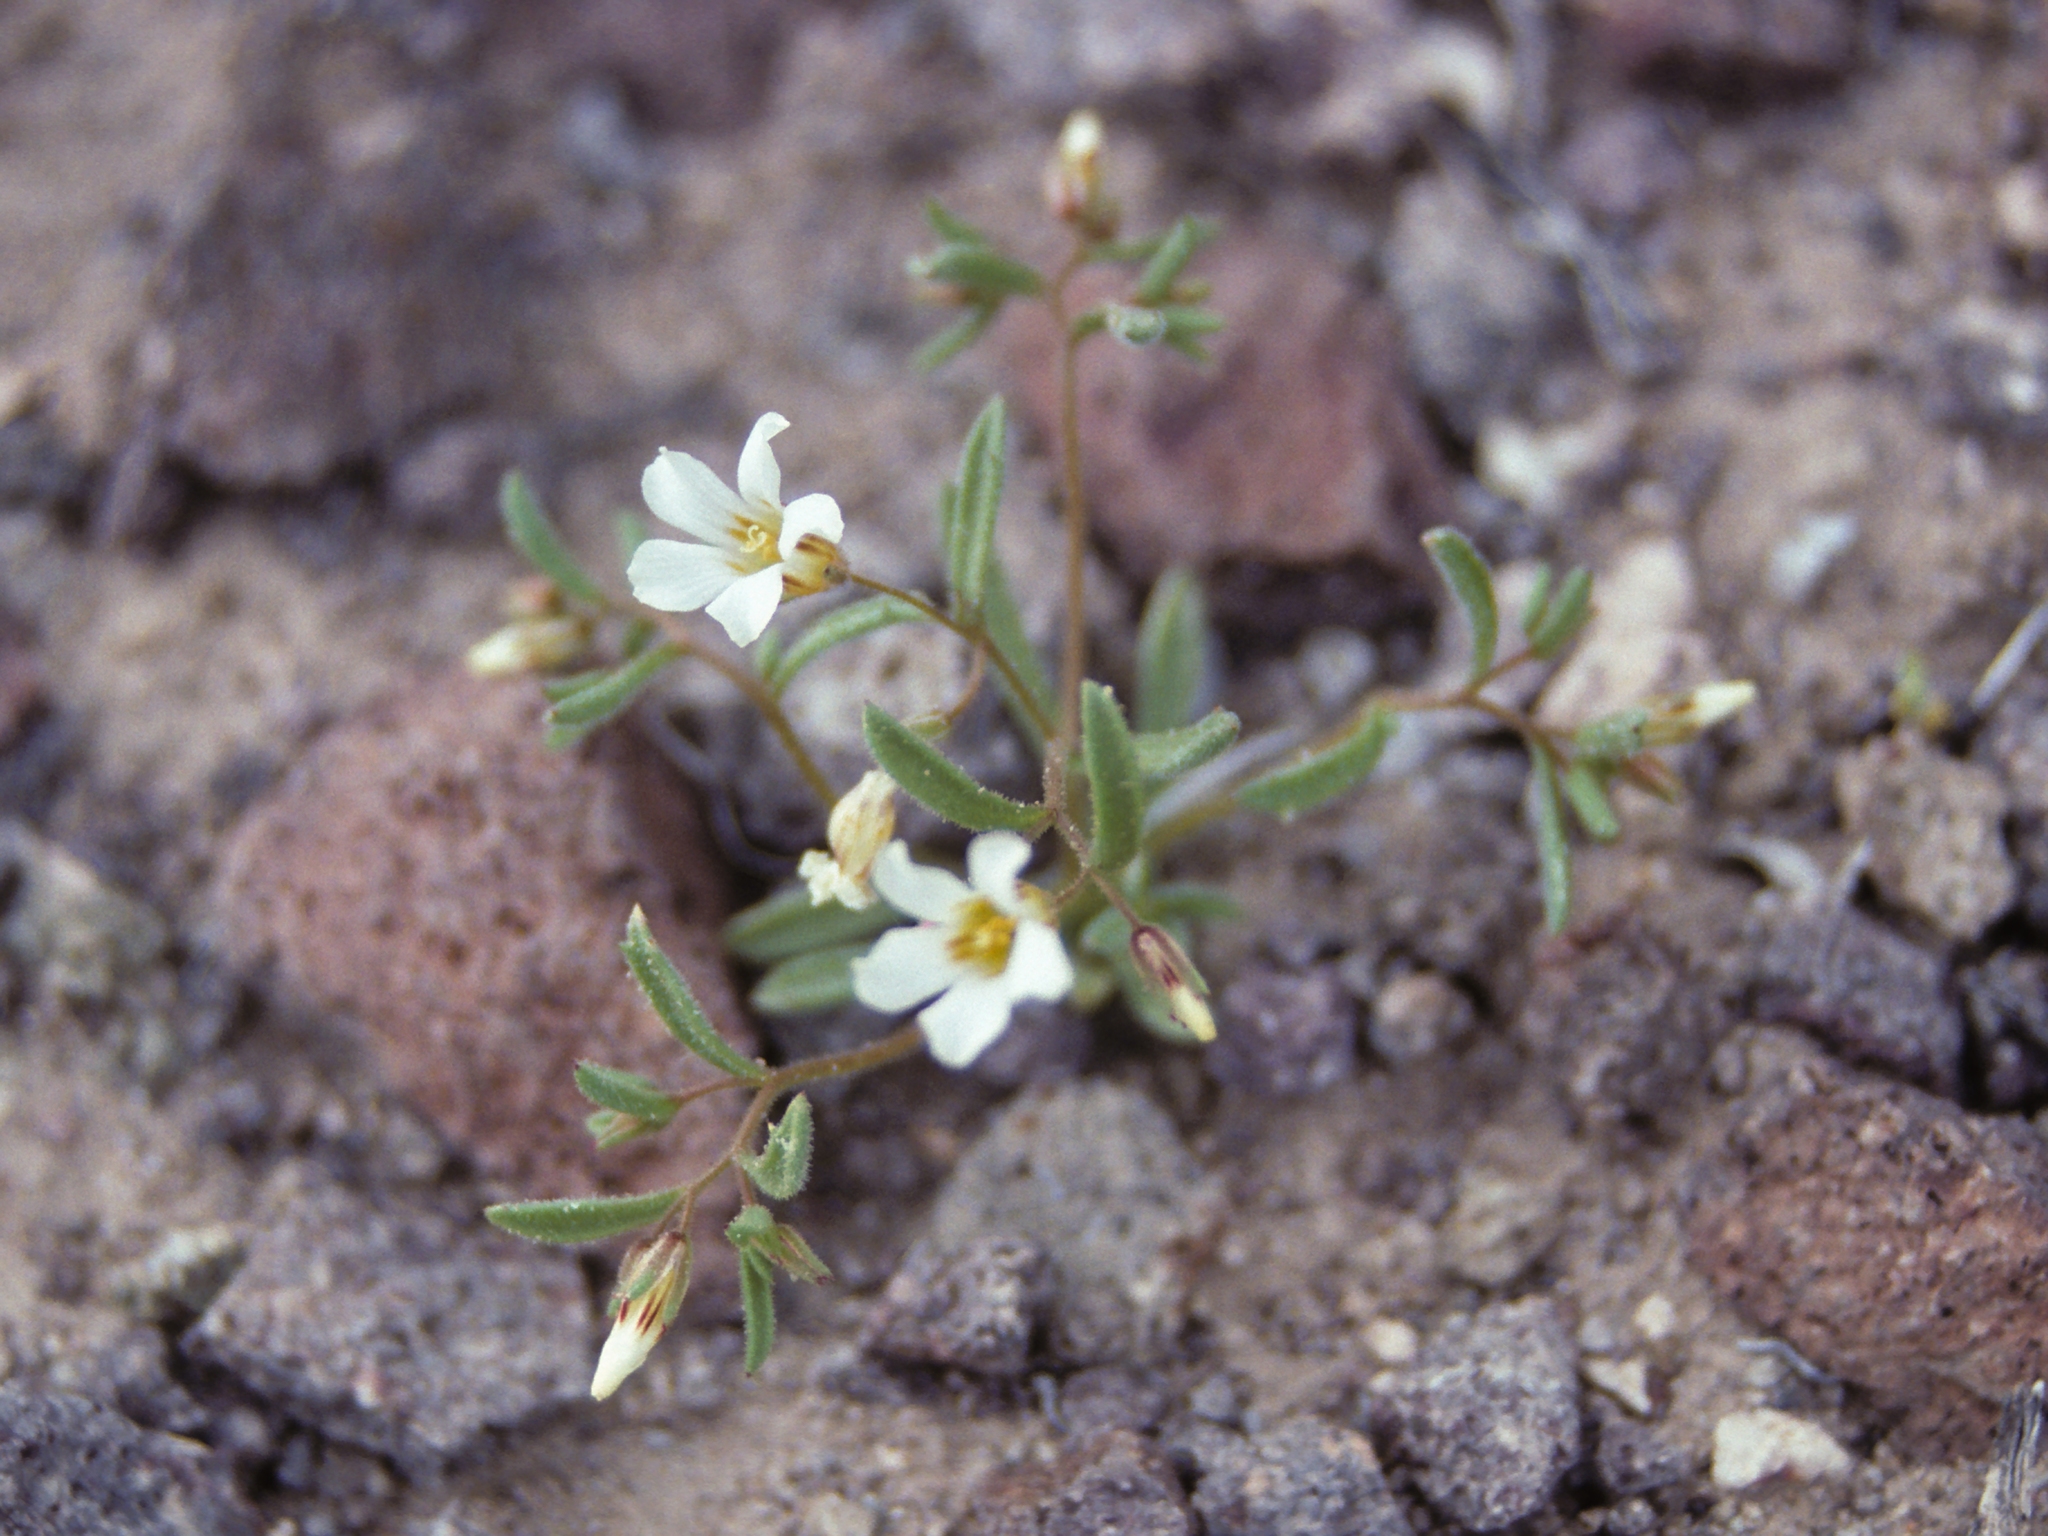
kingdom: Plantae
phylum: Tracheophyta
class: Magnoliopsida
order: Ericales
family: Polemoniaceae
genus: Linanthus
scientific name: Linanthus campanulatus
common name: Bellshape gilia
